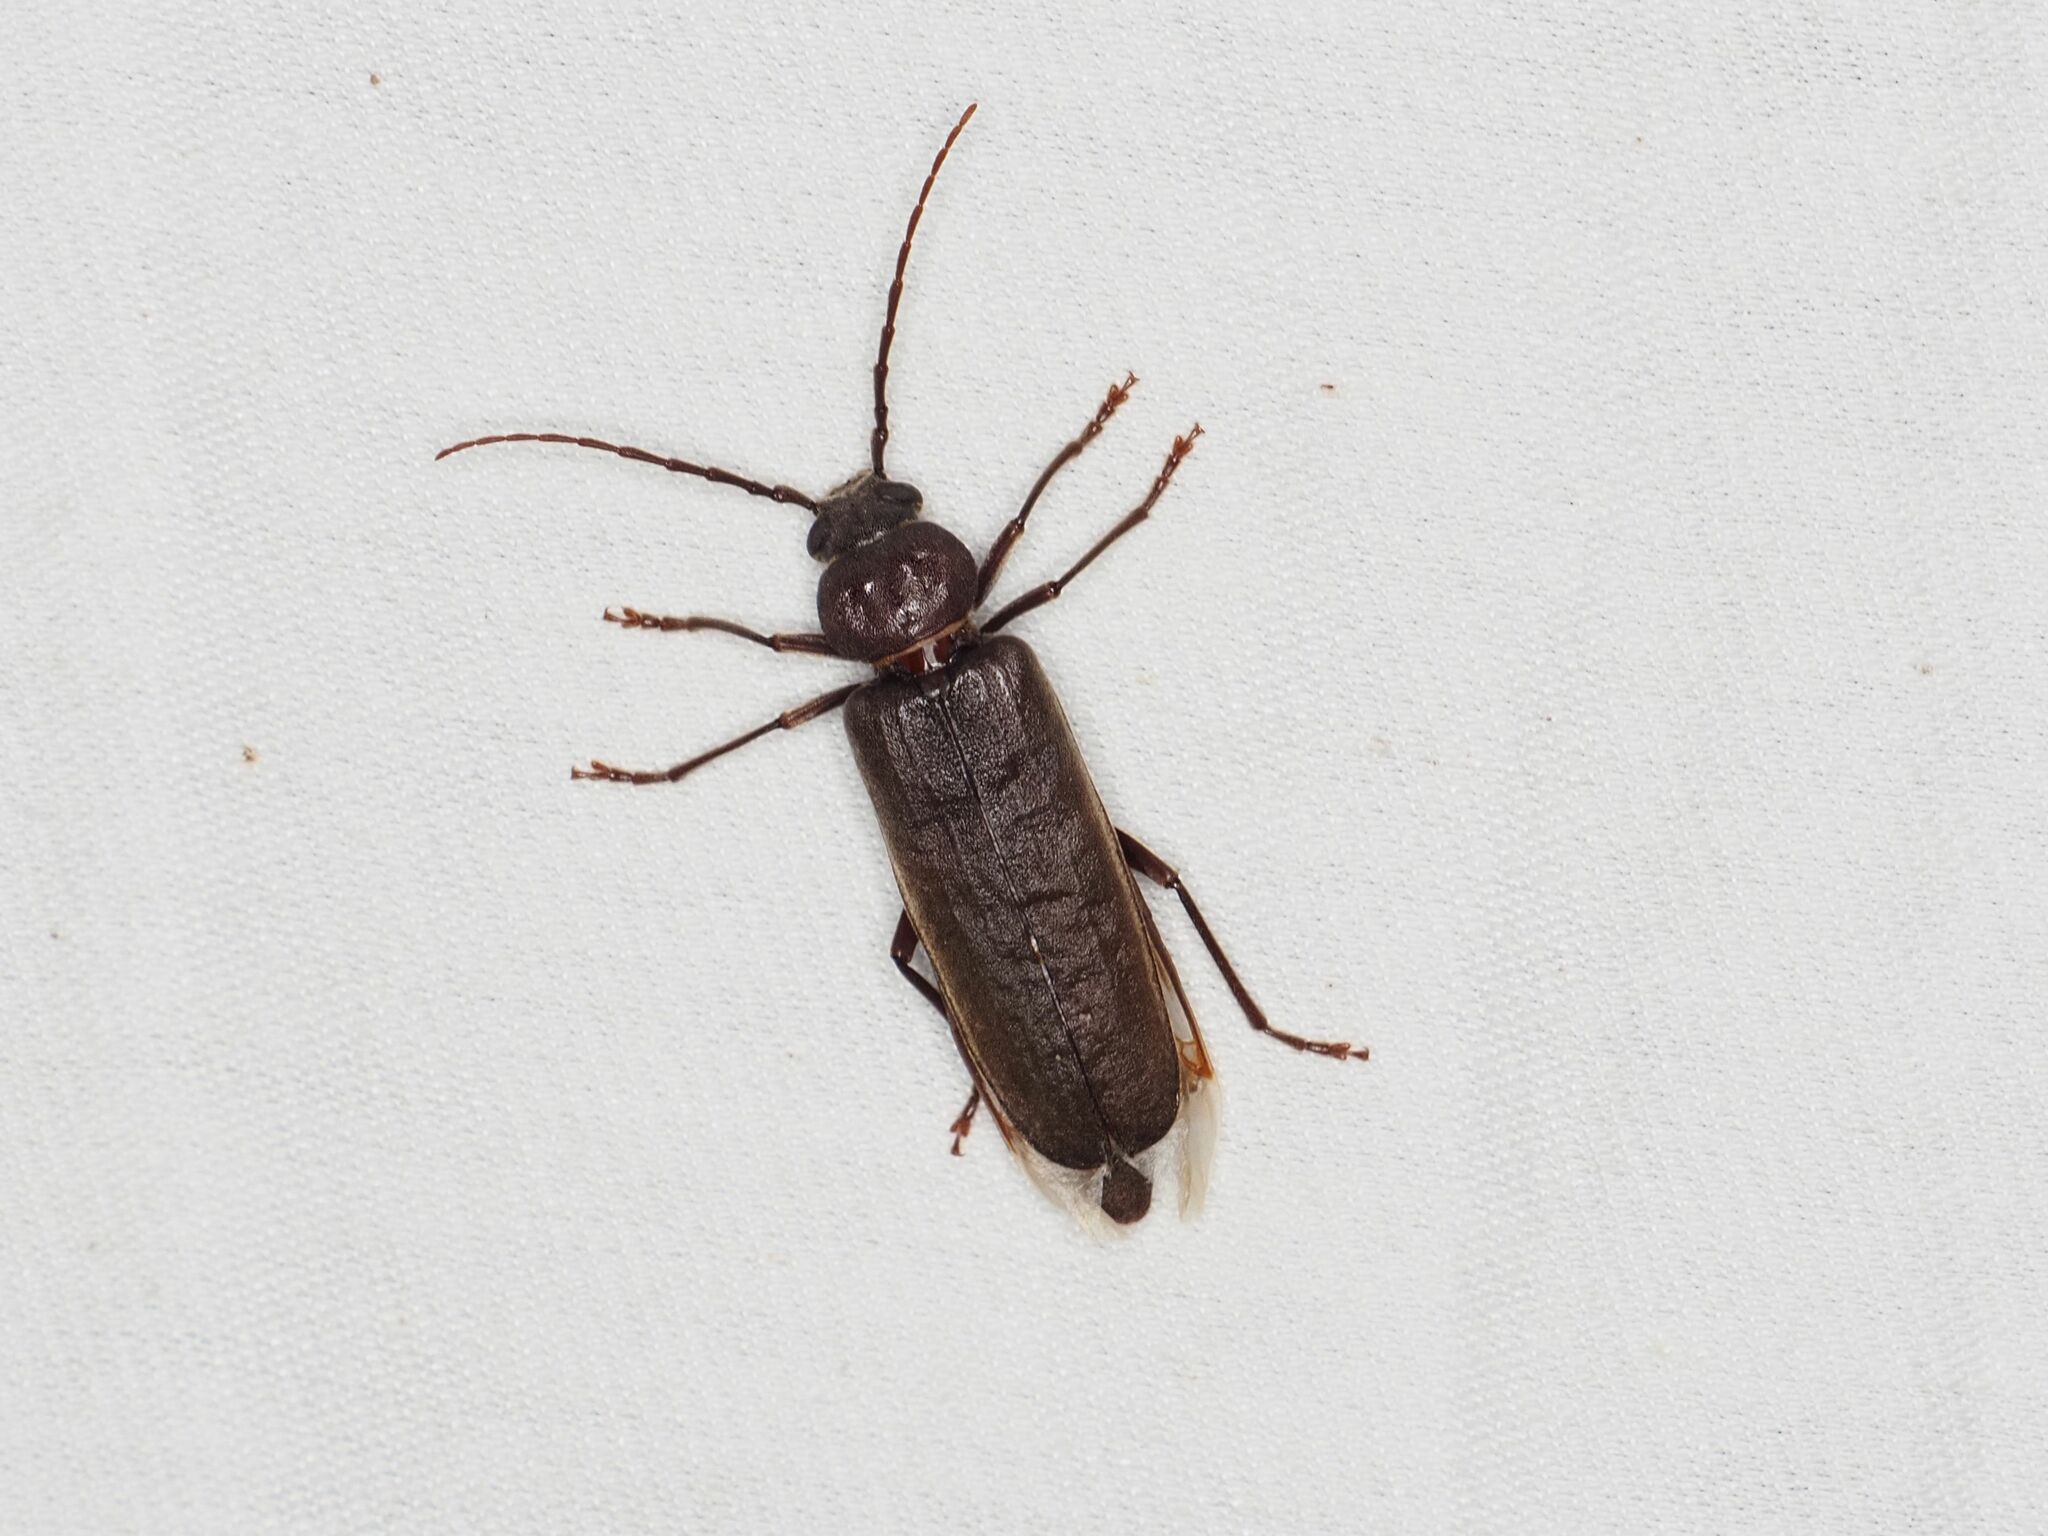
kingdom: Animalia
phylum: Arthropoda
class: Insecta
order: Coleoptera
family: Cerambycidae
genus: Arhopalus
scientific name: Arhopalus rusticus
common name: Rust pine borer
